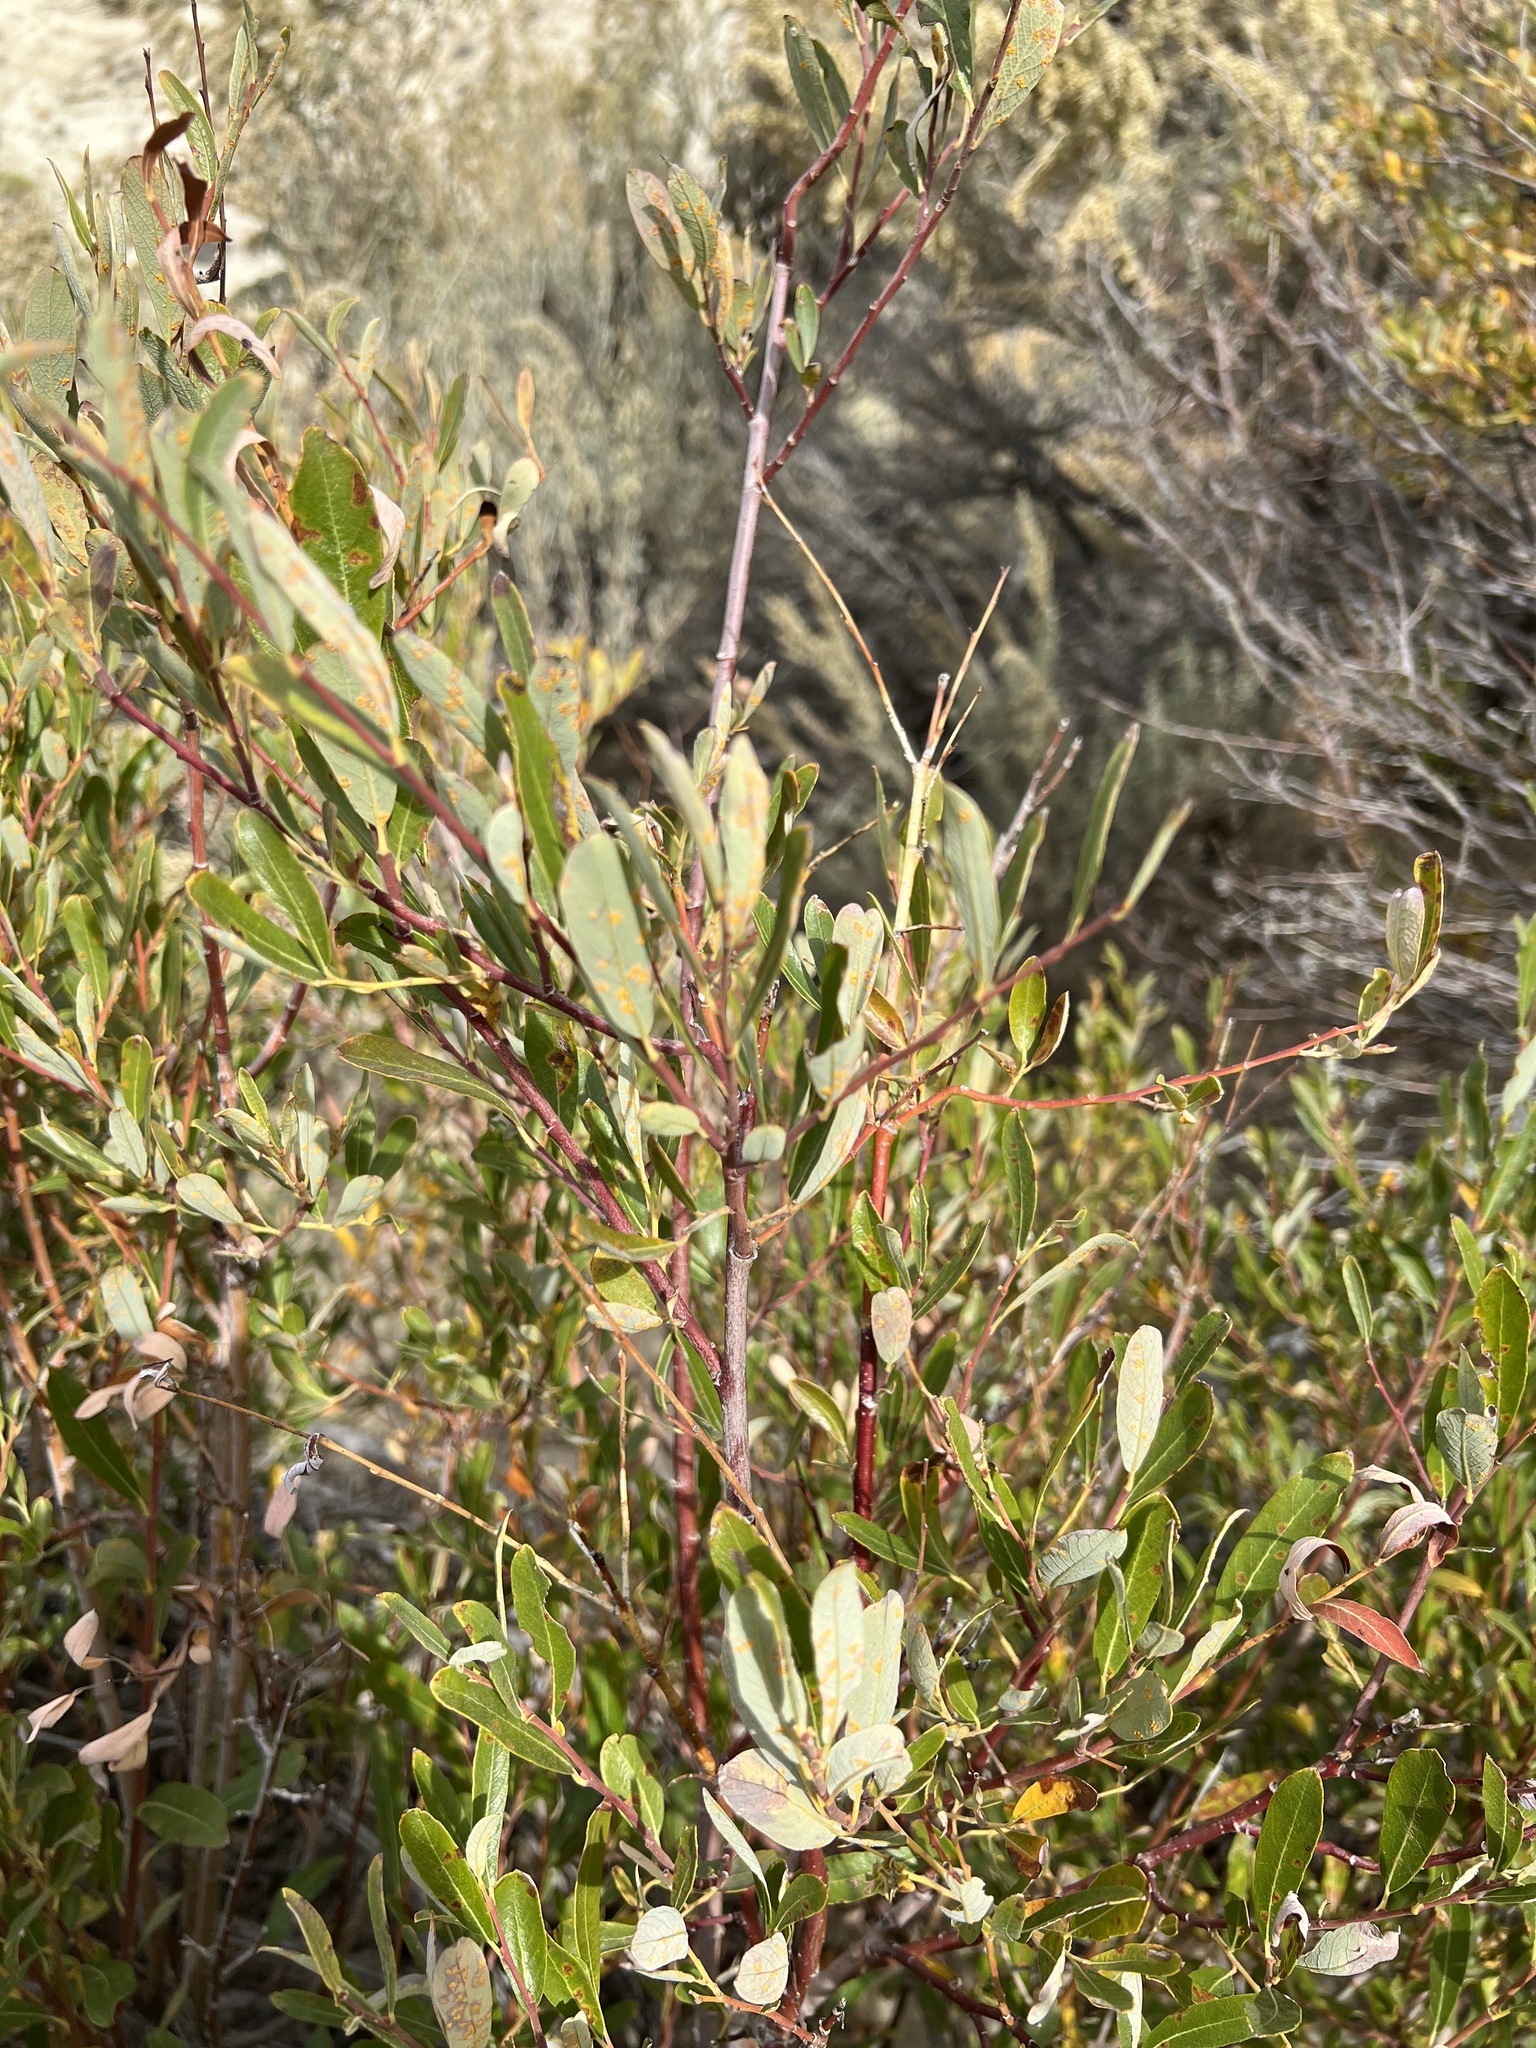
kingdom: Plantae
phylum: Tracheophyta
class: Magnoliopsida
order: Malpighiales
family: Salicaceae
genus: Salix
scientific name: Salix lasiolepis
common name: Arroyo willow
